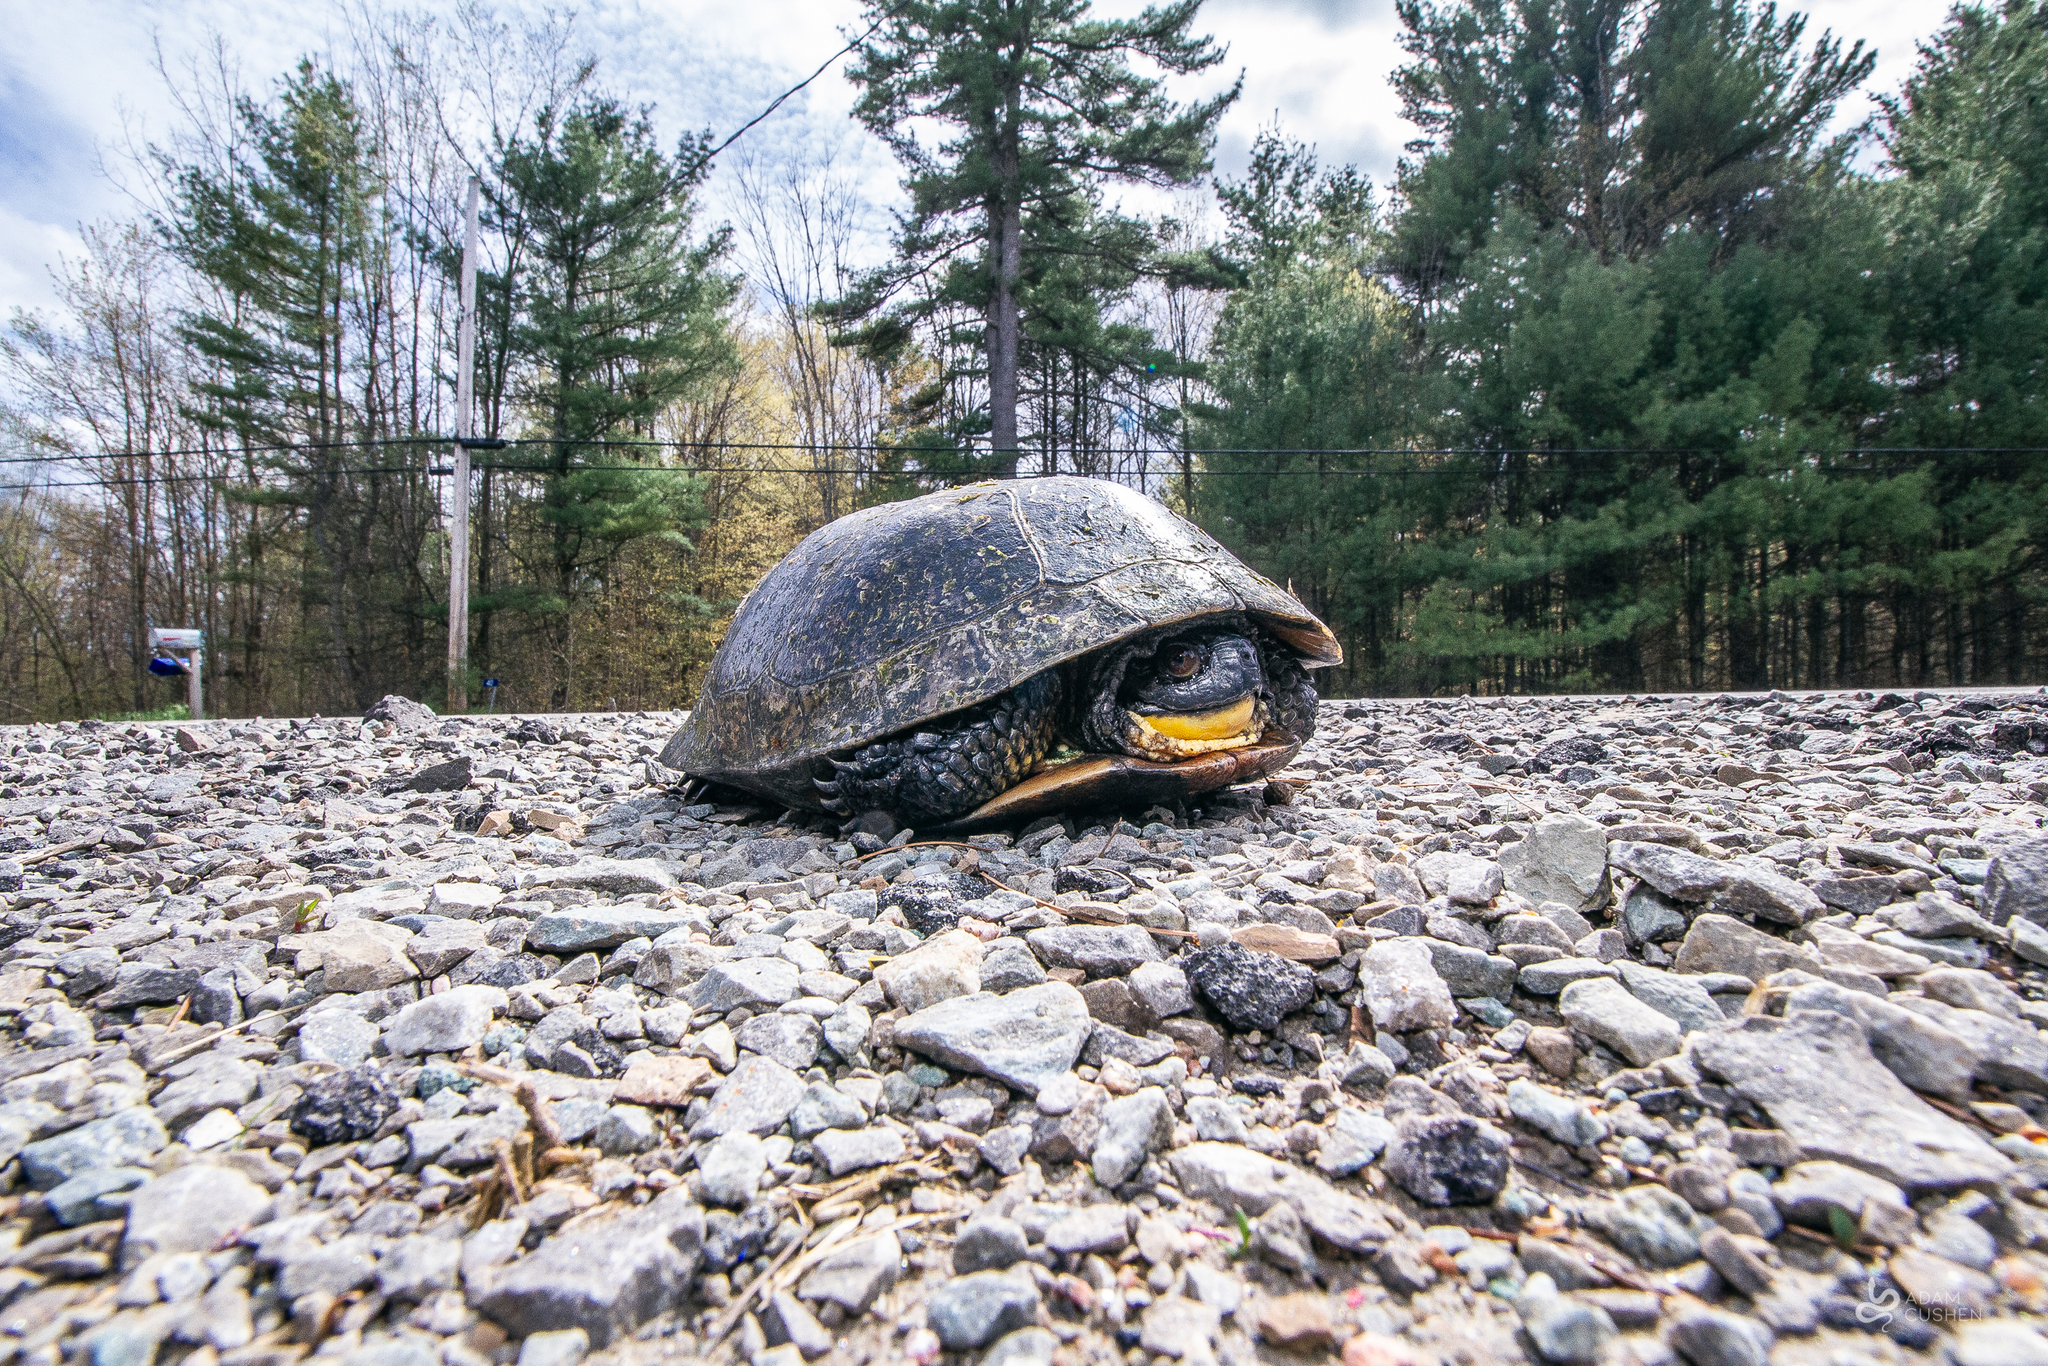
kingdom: Animalia
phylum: Chordata
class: Testudines
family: Emydidae
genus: Emys
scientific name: Emys blandingii
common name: Blanding's turtle
